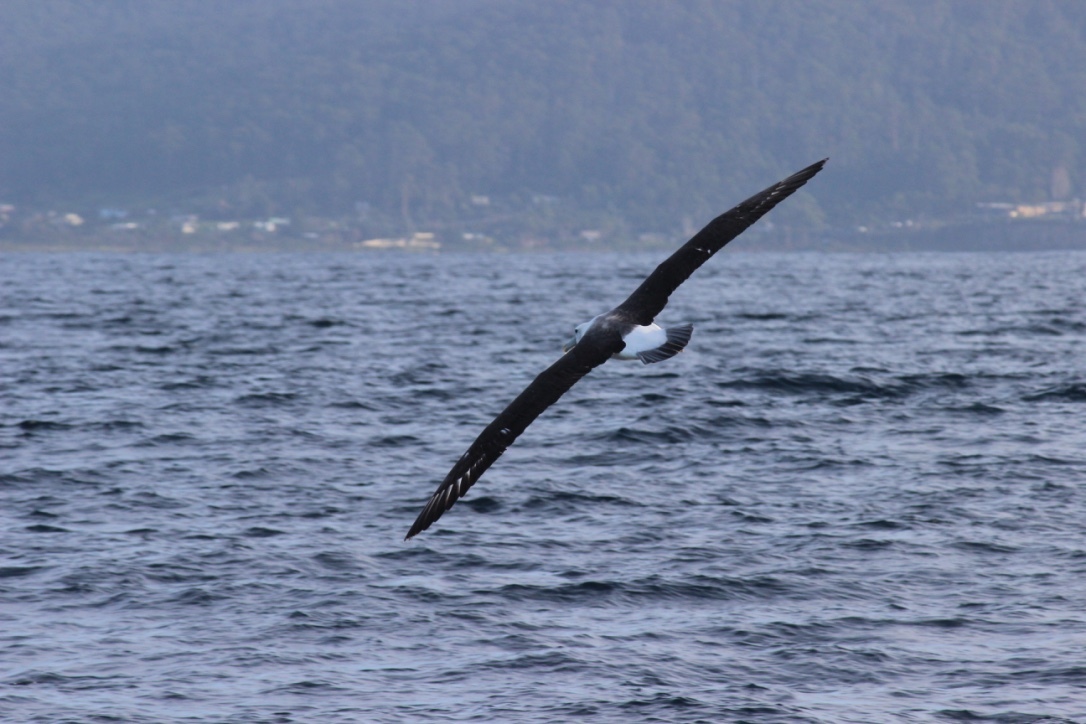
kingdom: Animalia
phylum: Chordata
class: Aves
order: Procellariiformes
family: Diomedeidae
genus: Thalassarche
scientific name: Thalassarche cauta
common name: Shy albatross
